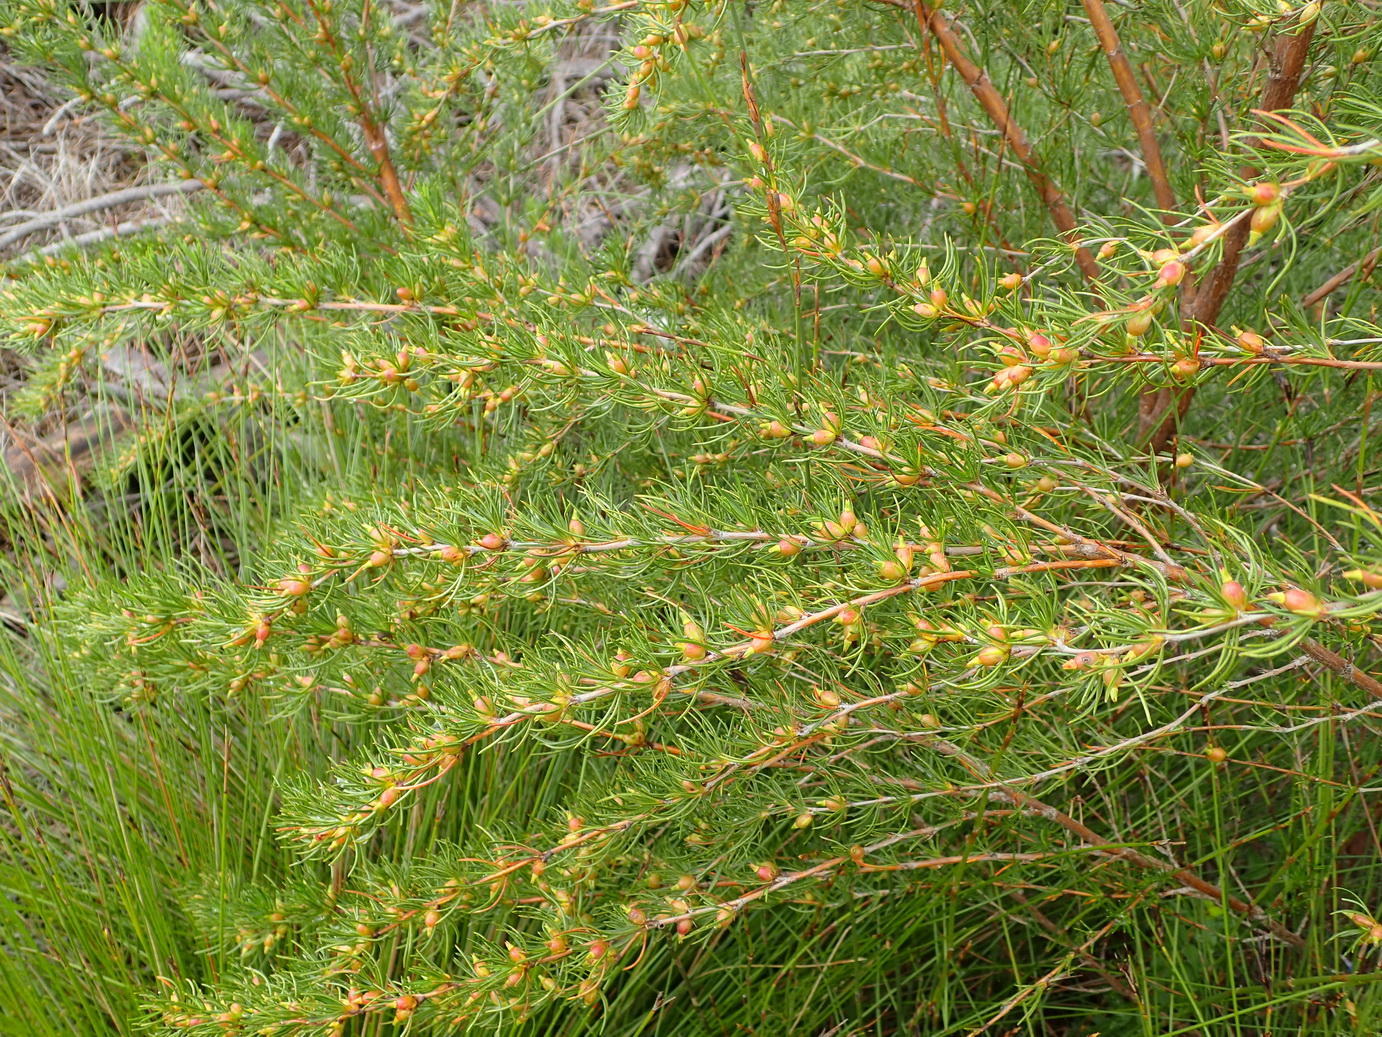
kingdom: Plantae
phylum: Tracheophyta
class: Magnoliopsida
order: Rosales
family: Rosaceae
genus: Cliffortia
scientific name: Cliffortia burchellii
